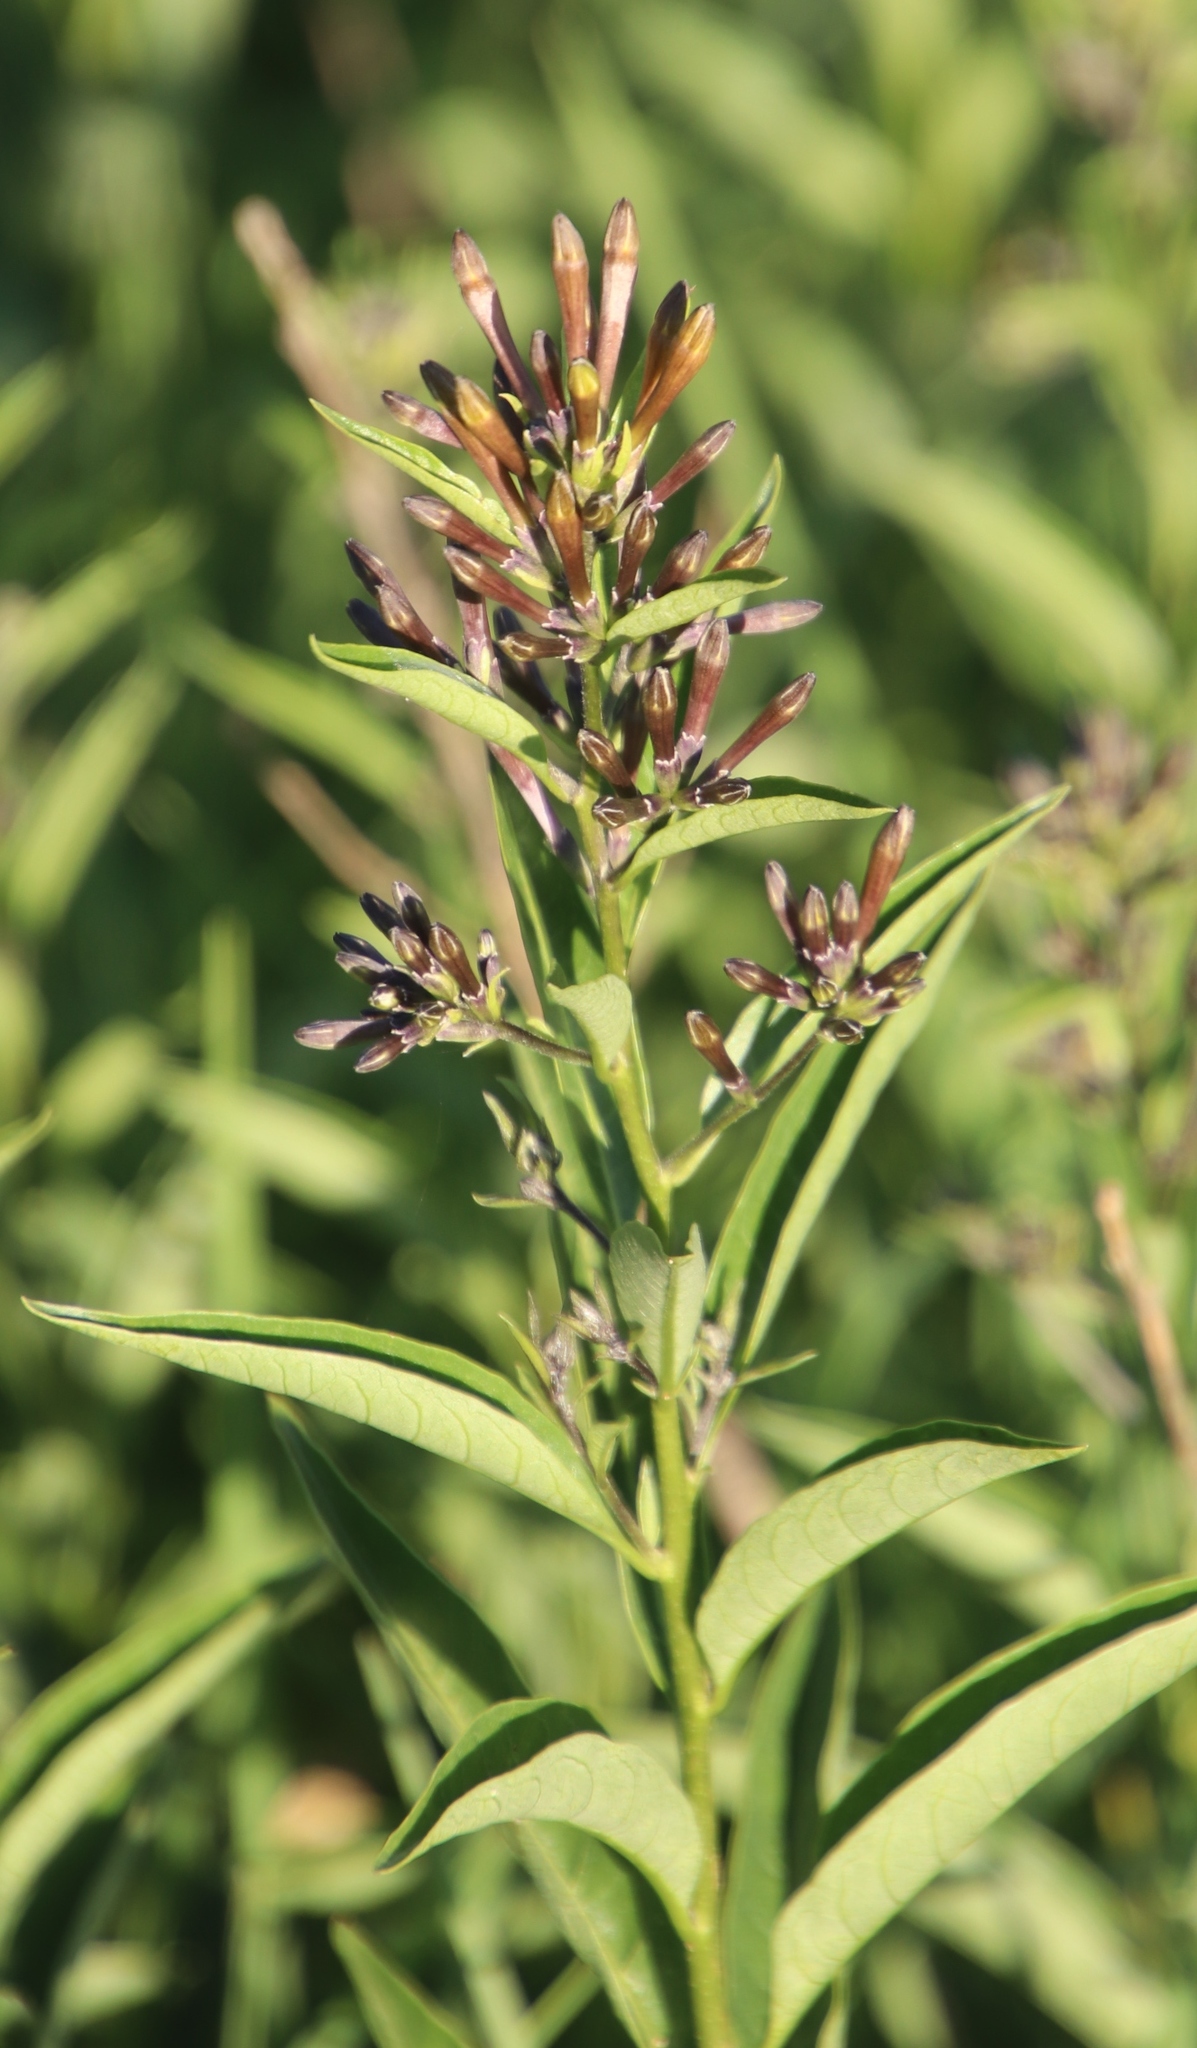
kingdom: Plantae
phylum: Tracheophyta
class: Magnoliopsida
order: Solanales
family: Solanaceae
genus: Cestrum
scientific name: Cestrum parqui
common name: Chilean cestrum
